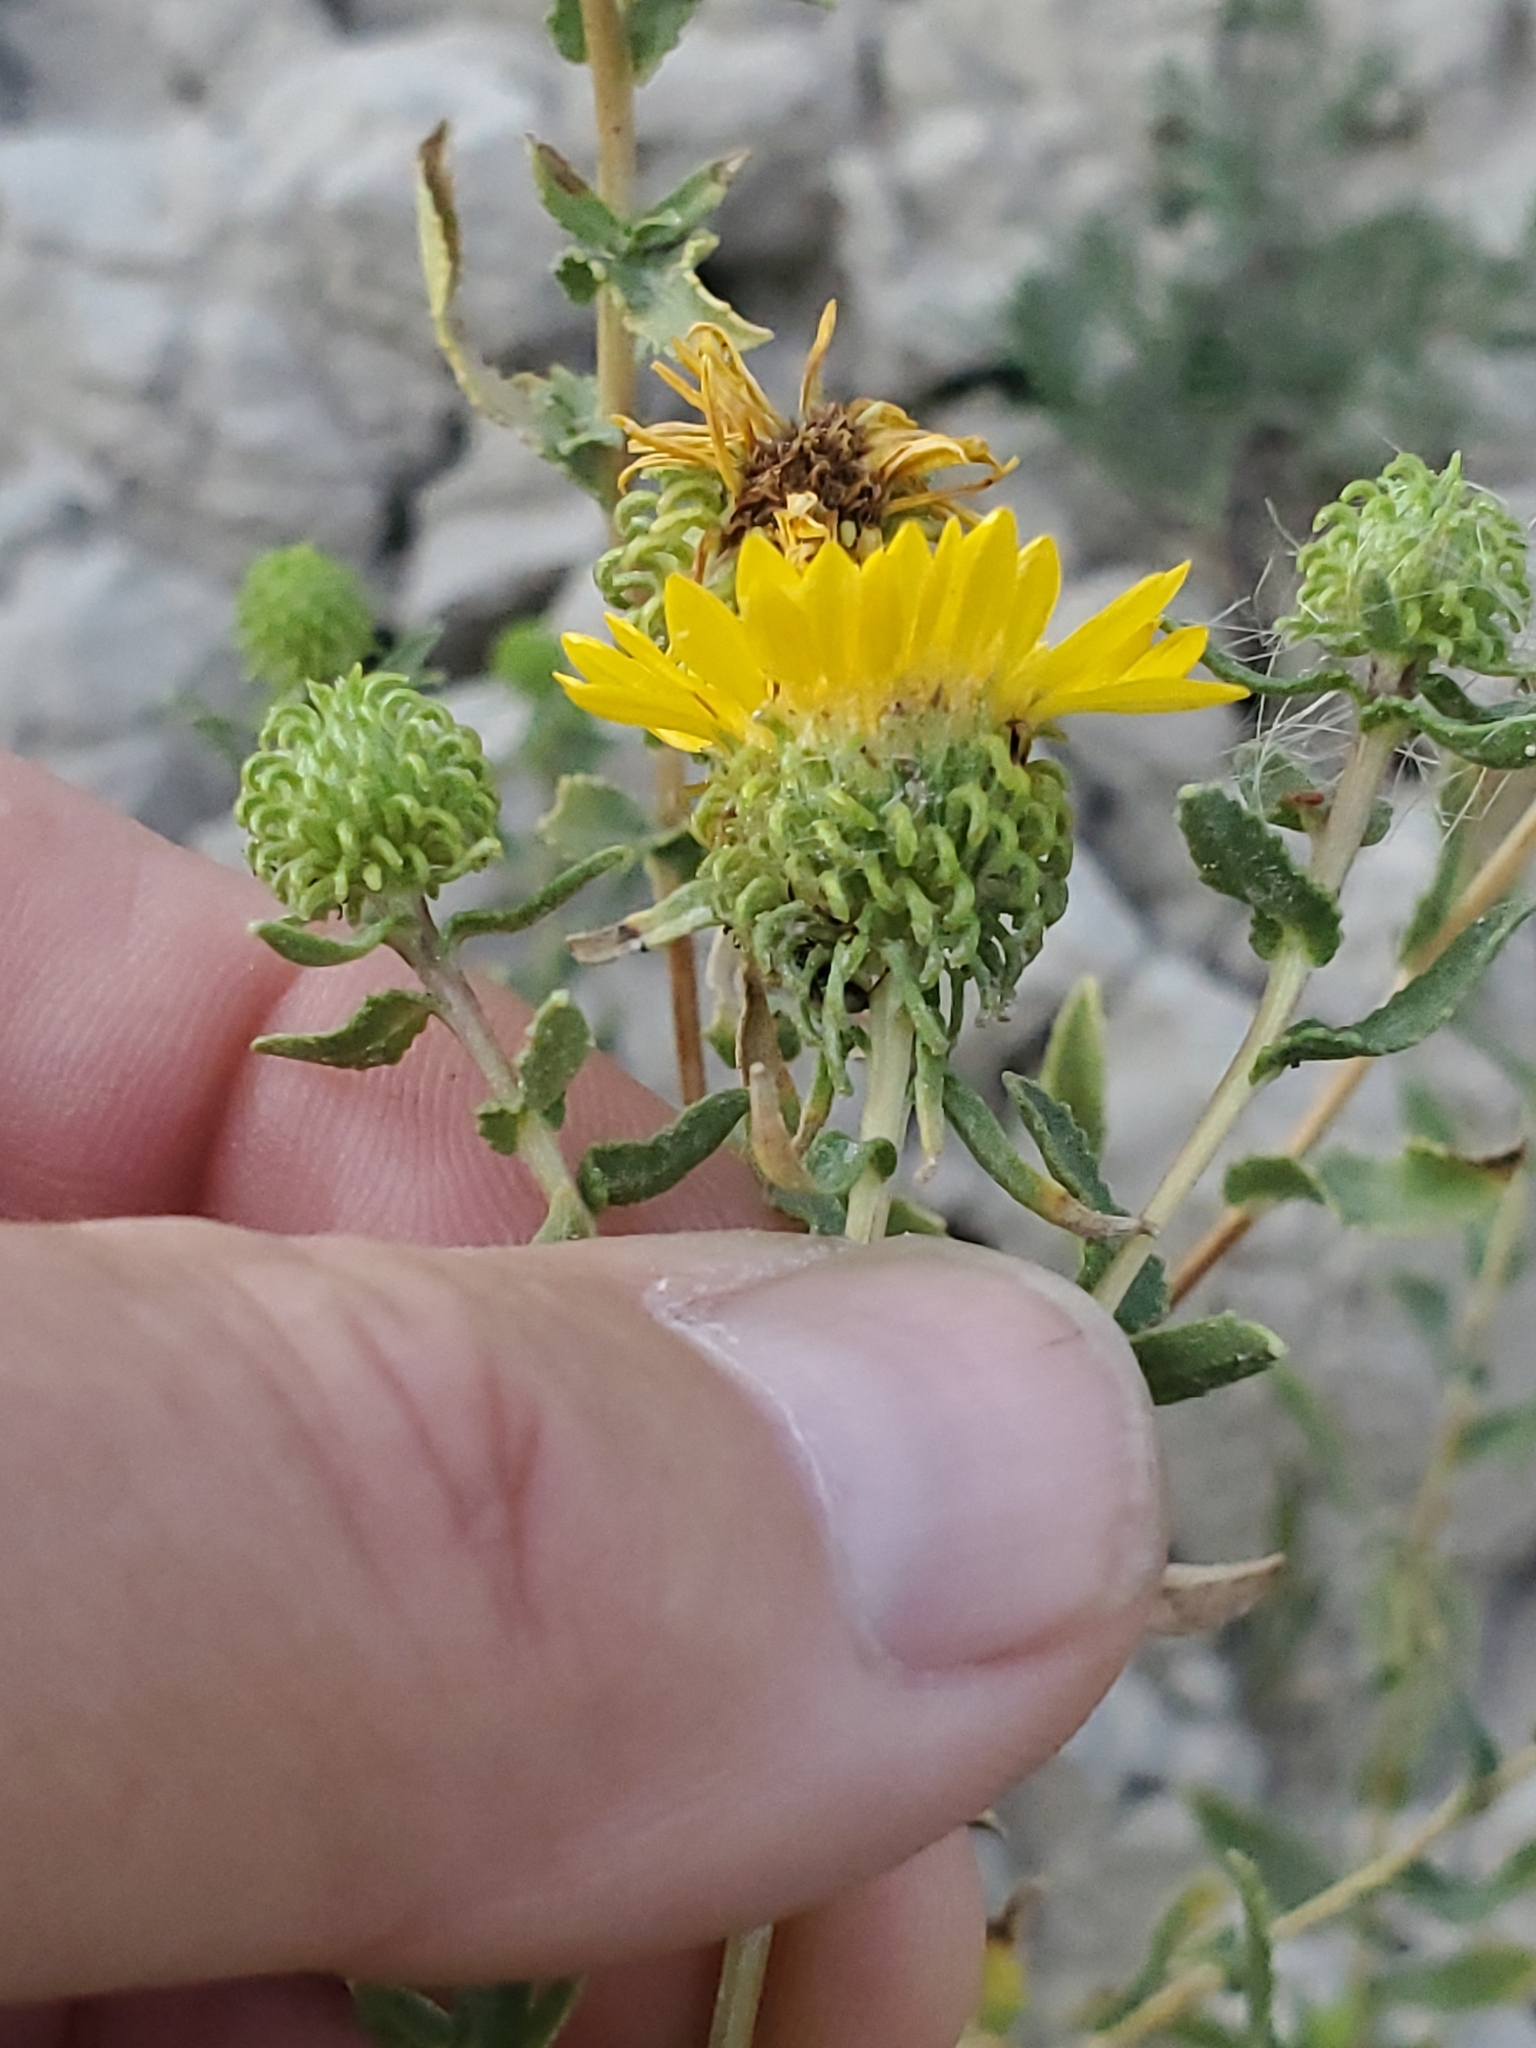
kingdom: Plantae
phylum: Tracheophyta
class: Magnoliopsida
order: Asterales
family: Asteraceae
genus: Grindelia
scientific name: Grindelia squarrosa
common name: Curly-cup gumweed
